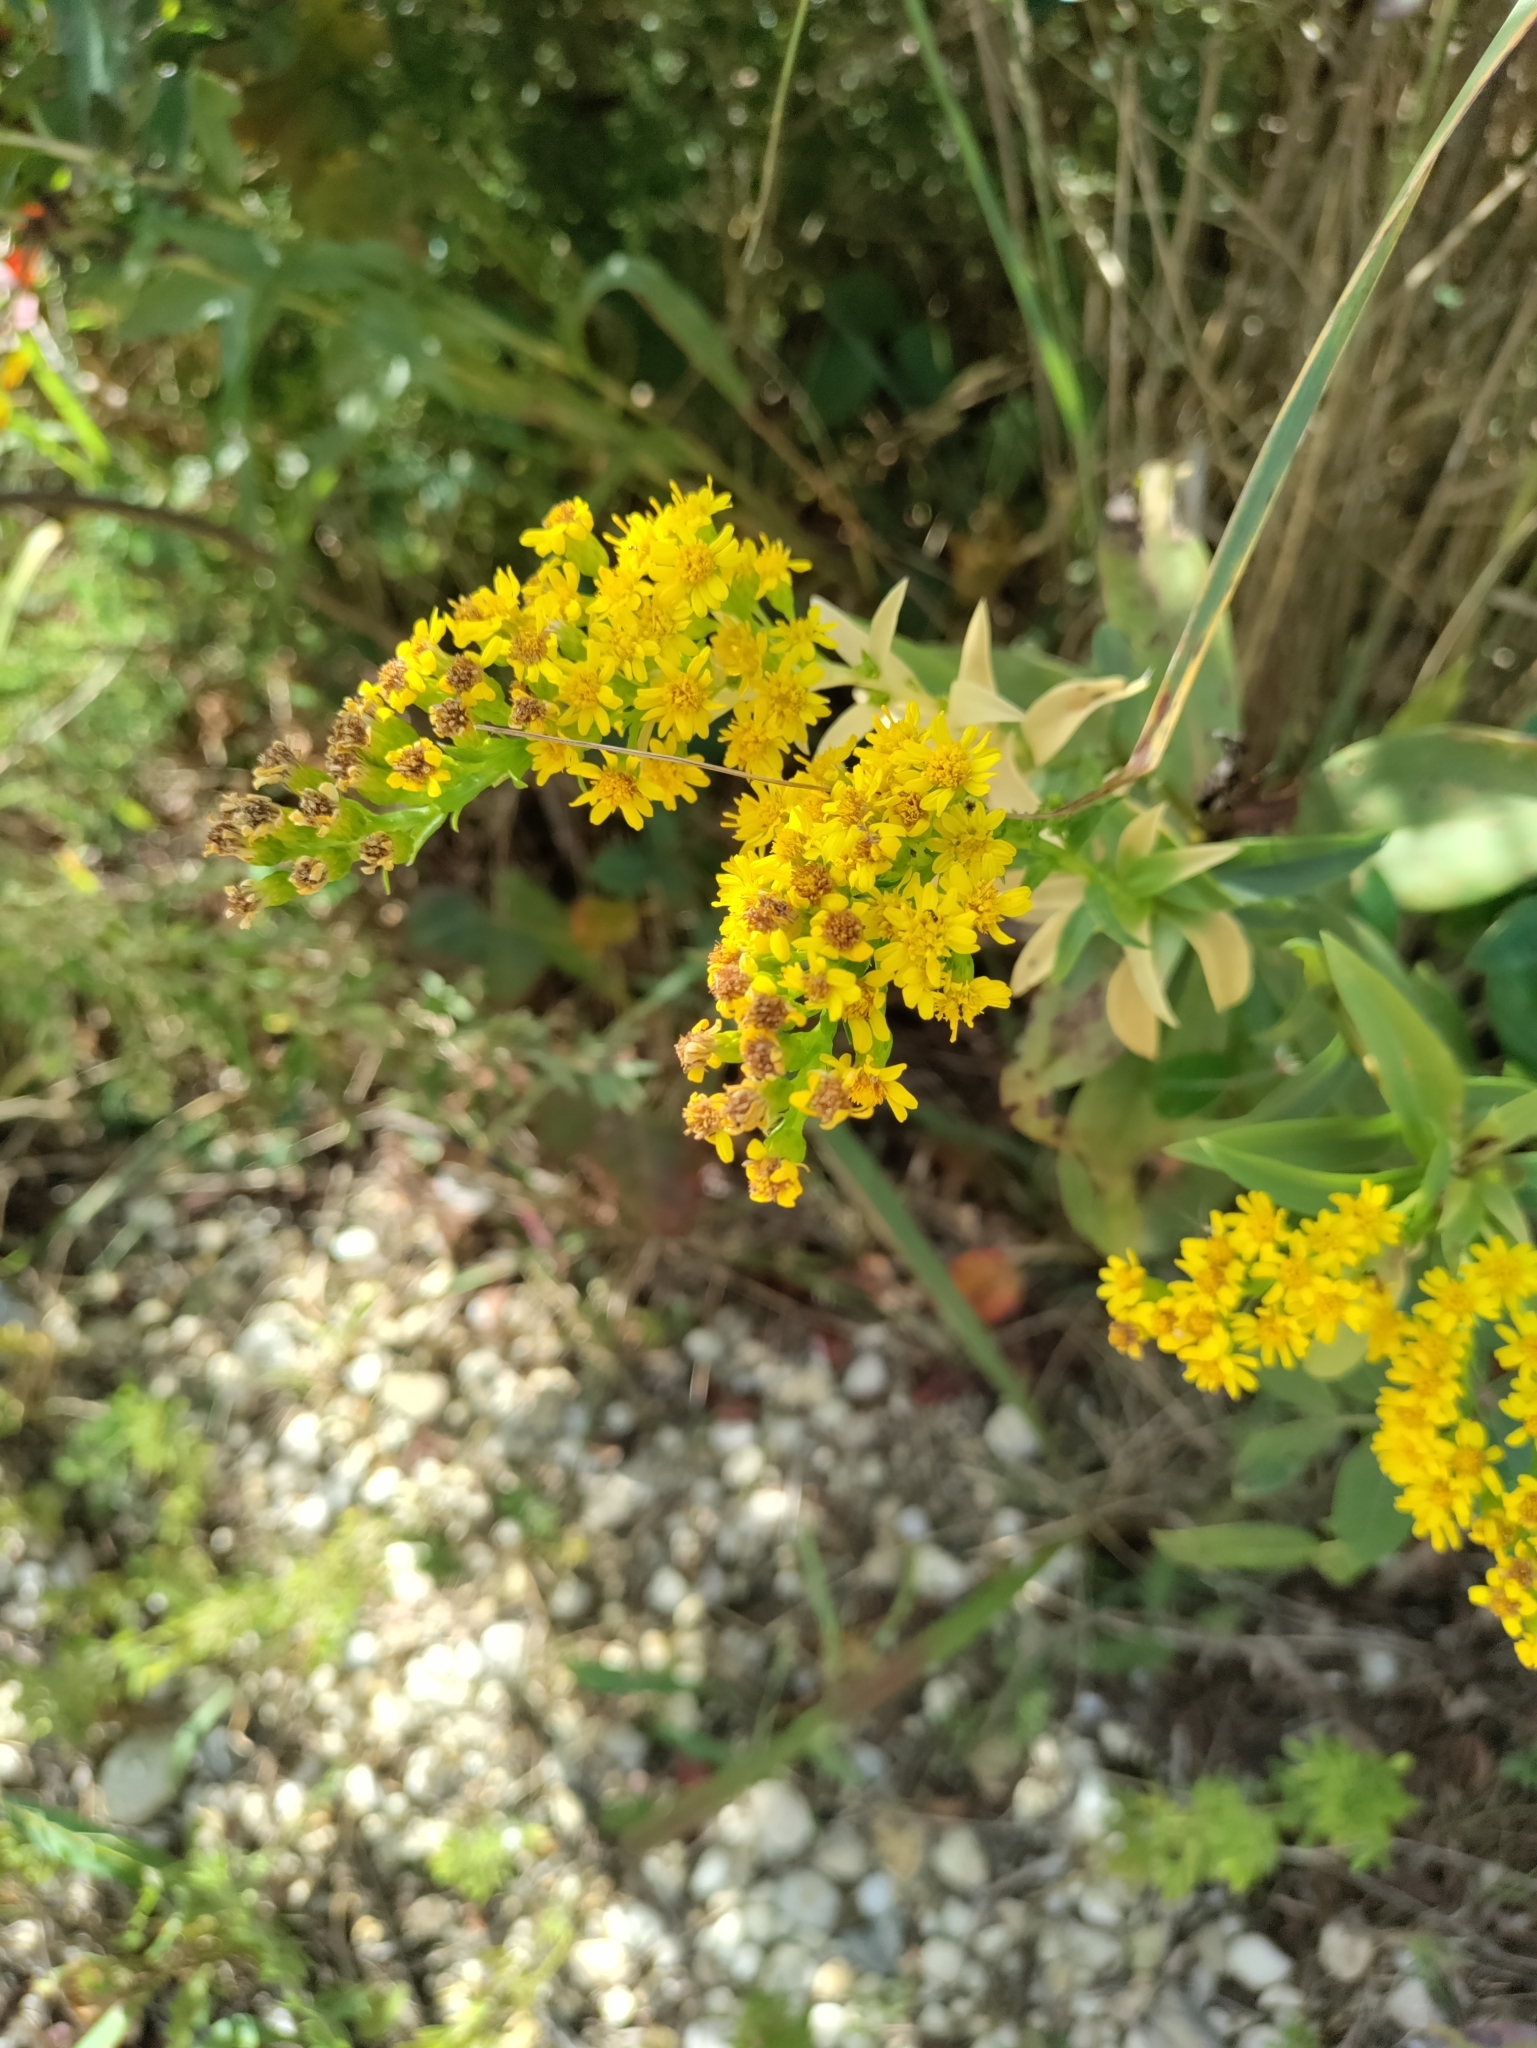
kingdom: Plantae
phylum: Tracheophyta
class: Magnoliopsida
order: Asterales
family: Asteraceae
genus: Solidago
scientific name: Solidago sempervirens
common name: Salt-marsh goldenrod
